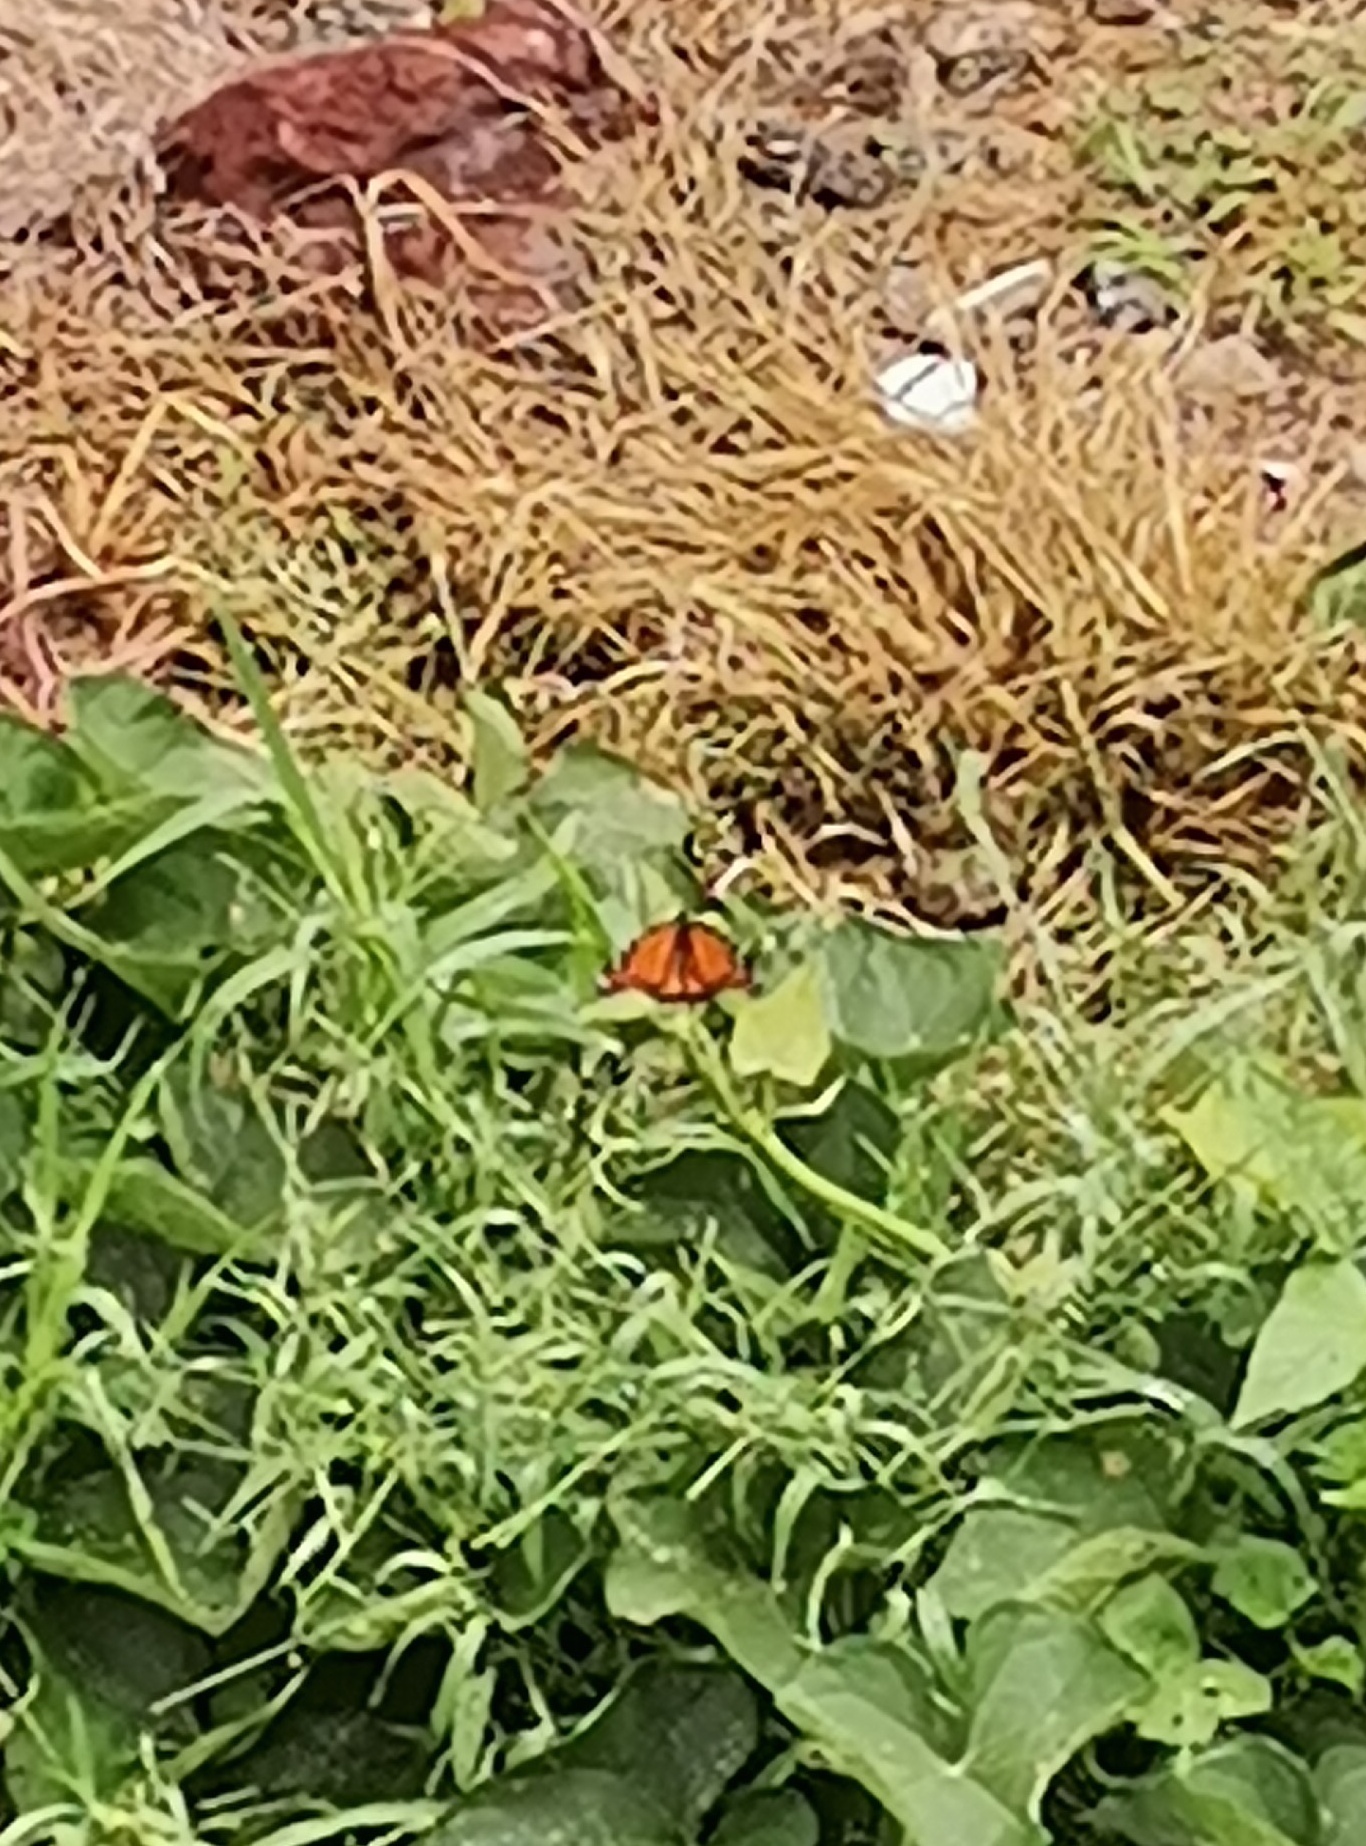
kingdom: Animalia
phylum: Arthropoda
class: Insecta
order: Lepidoptera
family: Nymphalidae
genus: Danaus
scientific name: Danaus plexippus
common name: Monarch
